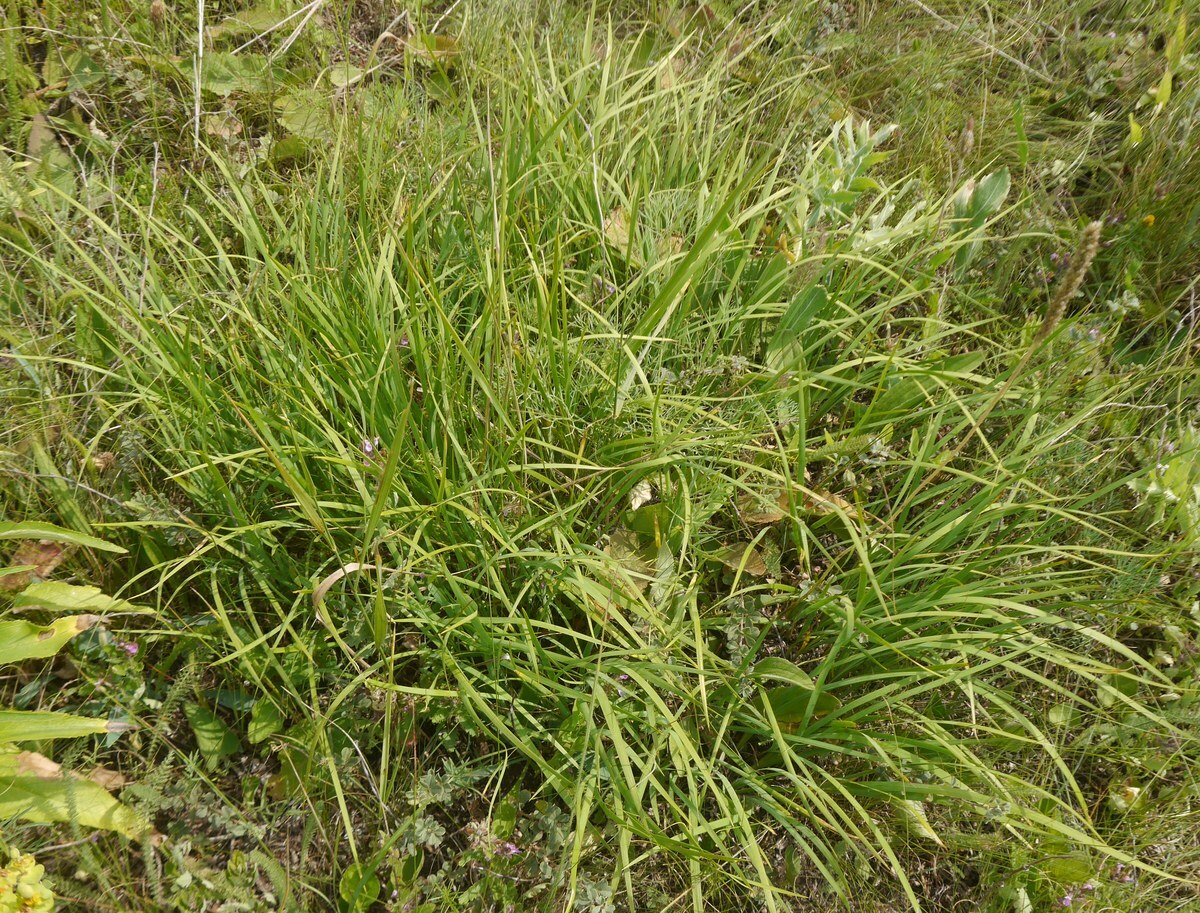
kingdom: Plantae
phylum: Tracheophyta
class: Liliopsida
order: Asparagales
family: Iridaceae
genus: Iris
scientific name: Iris pontica
